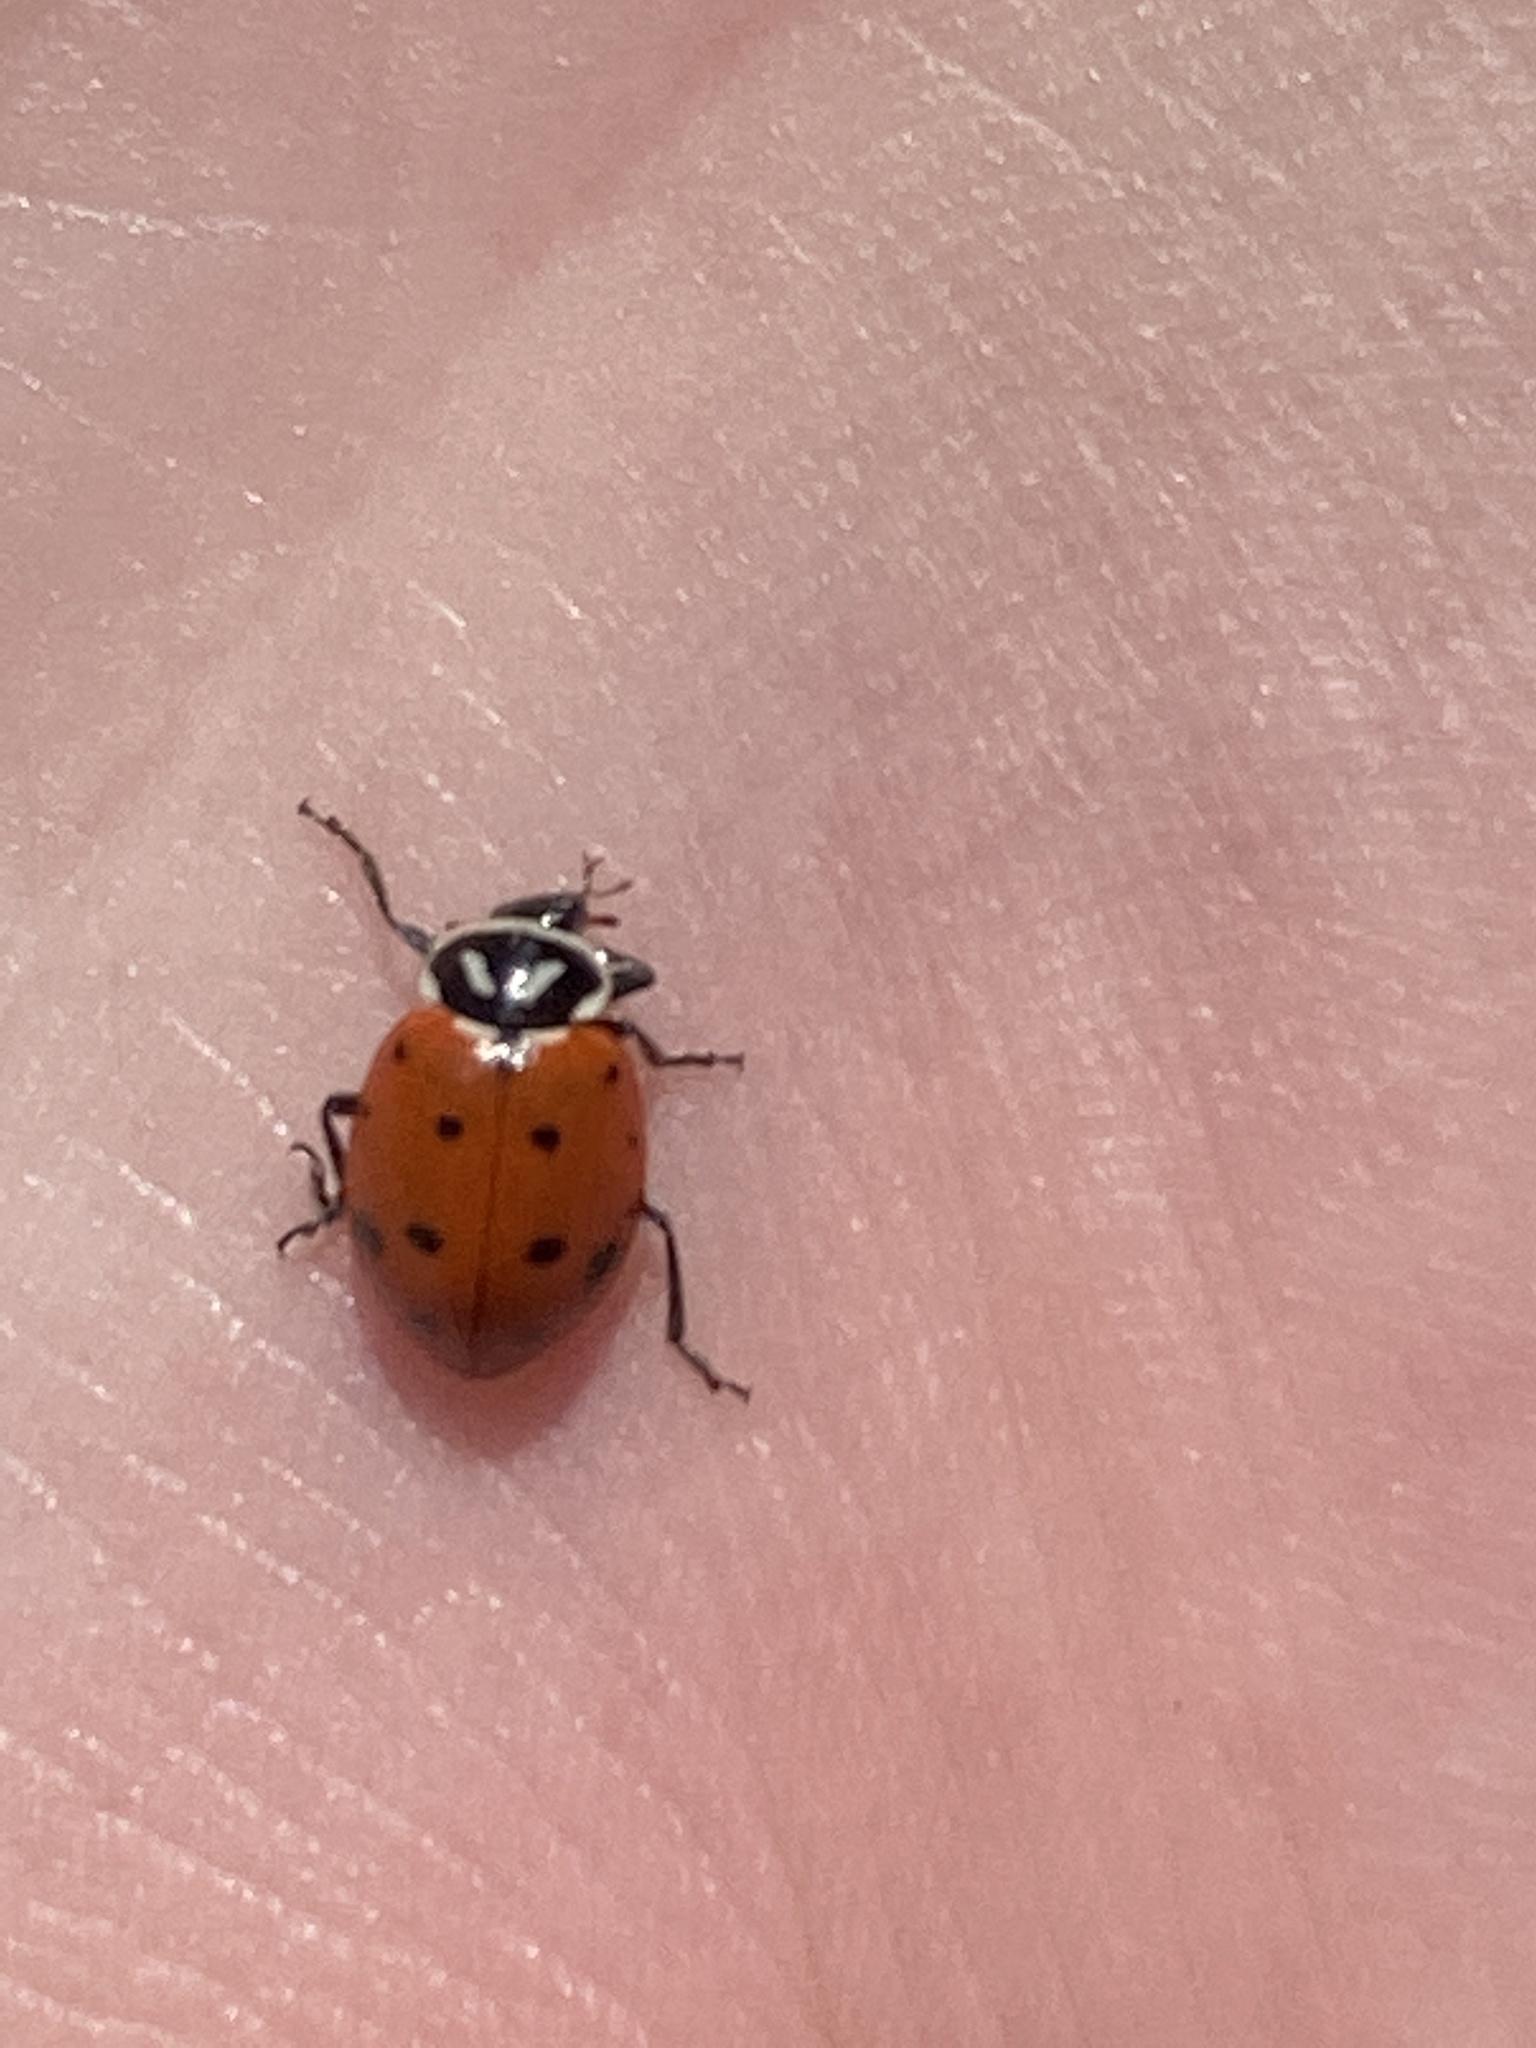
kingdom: Animalia
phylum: Arthropoda
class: Insecta
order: Coleoptera
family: Coccinellidae
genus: Hippodamia
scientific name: Hippodamia convergens
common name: Convergent lady beetle
